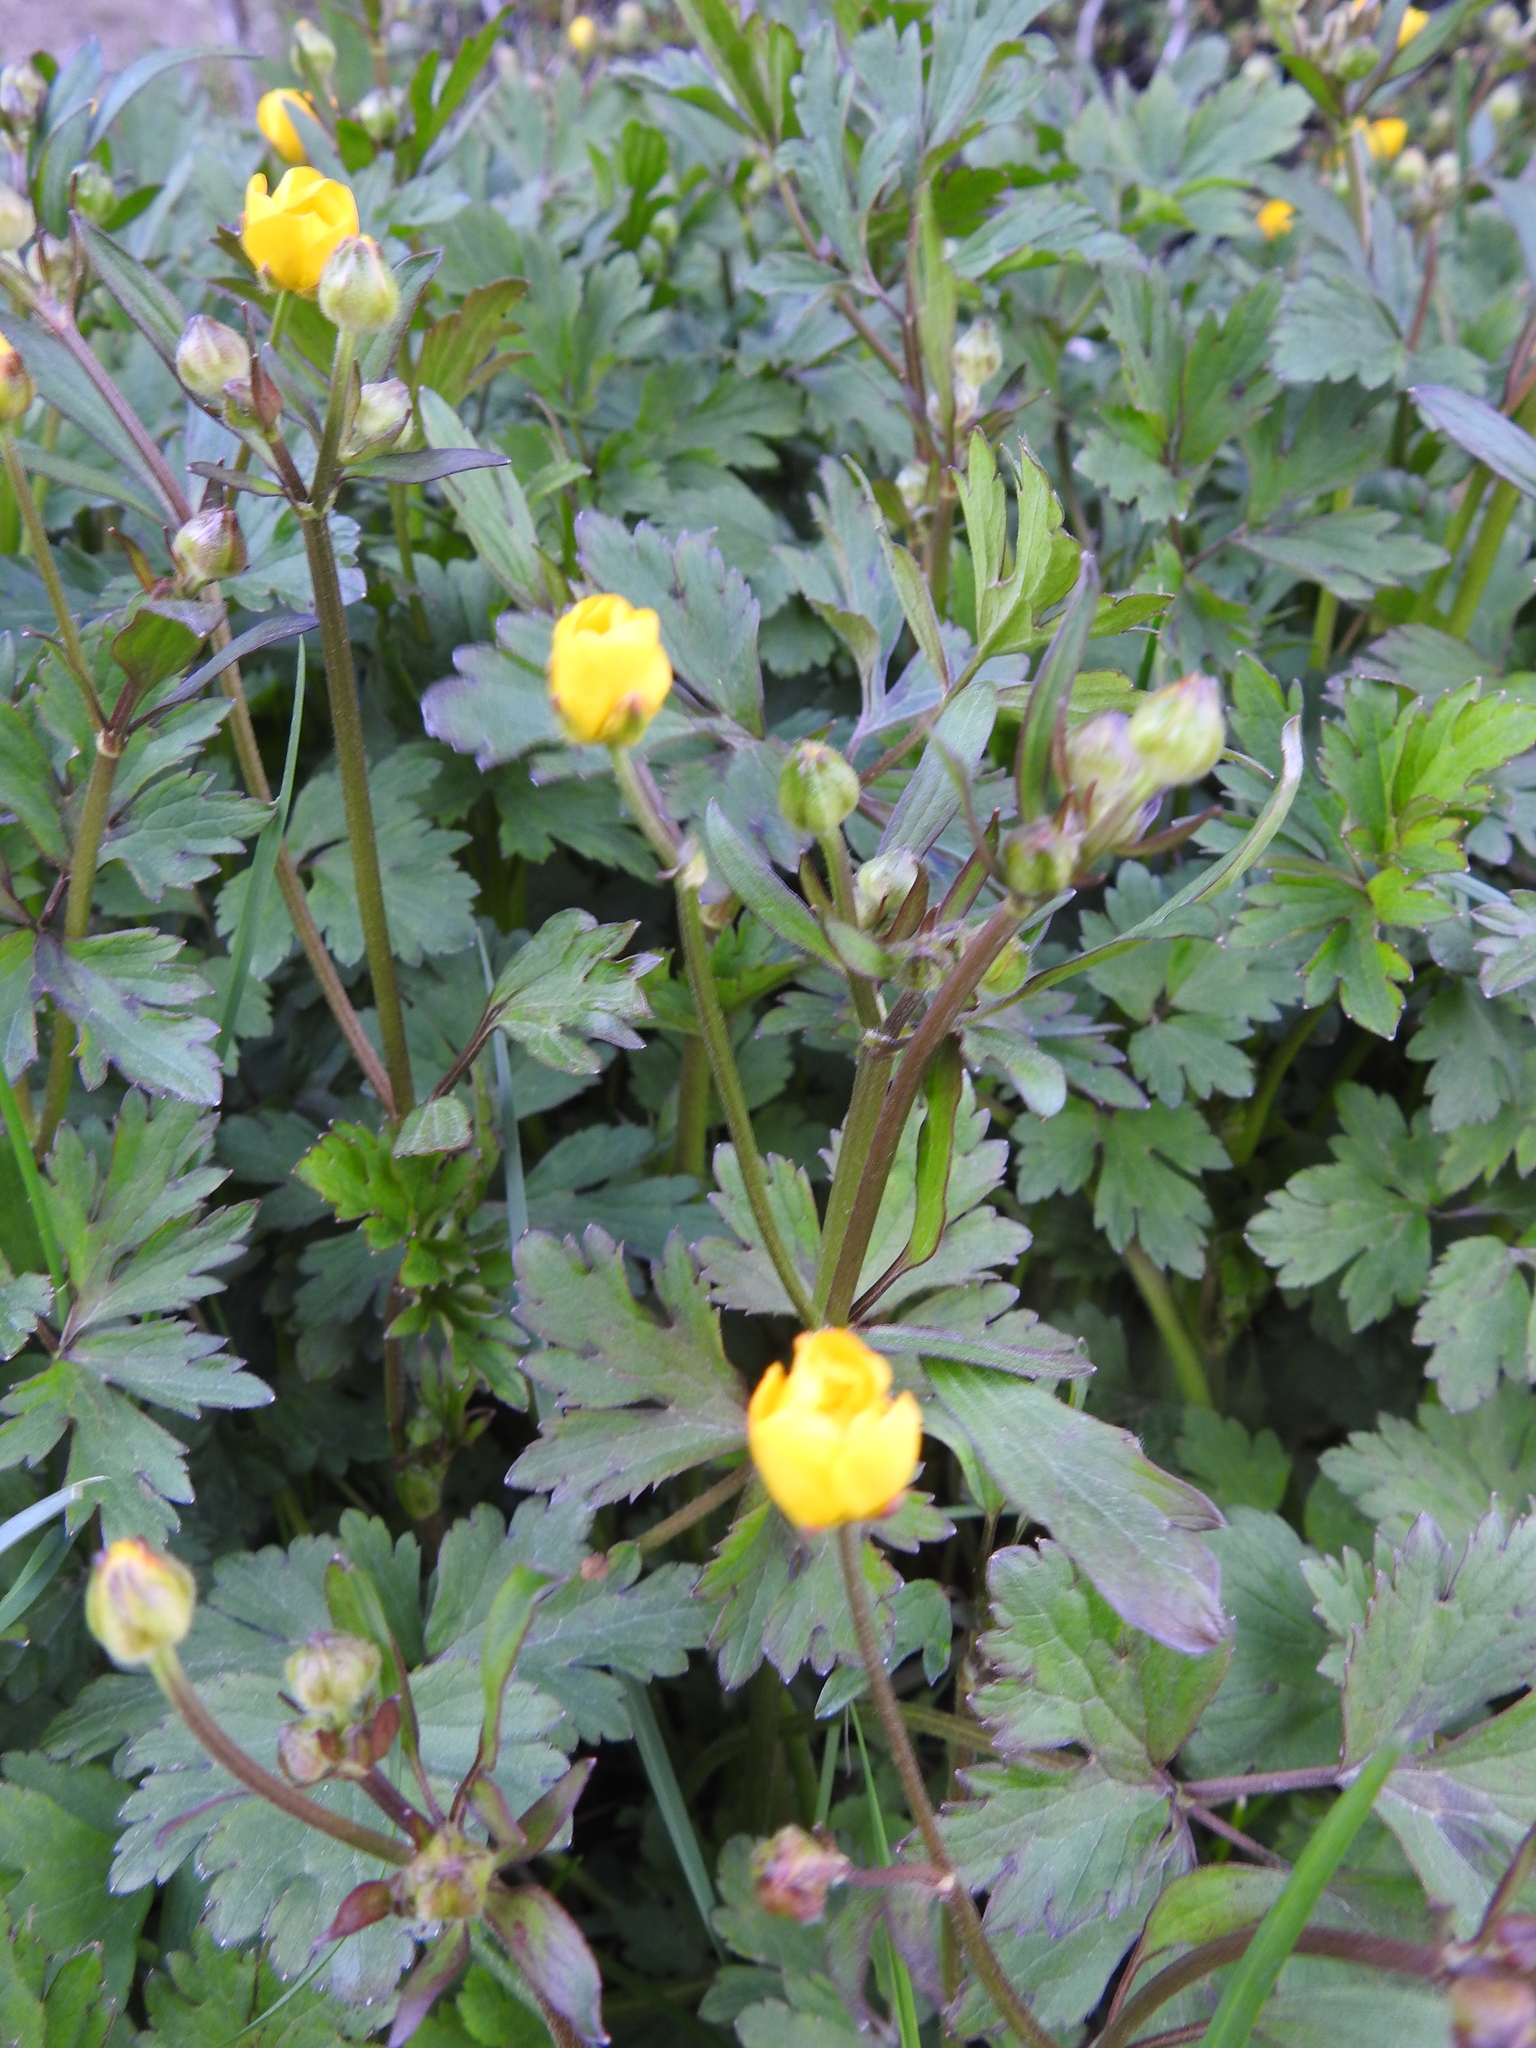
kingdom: Plantae
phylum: Tracheophyta
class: Magnoliopsida
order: Ranunculales
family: Ranunculaceae
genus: Ranunculus
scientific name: Ranunculus repens
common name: Creeping buttercup
